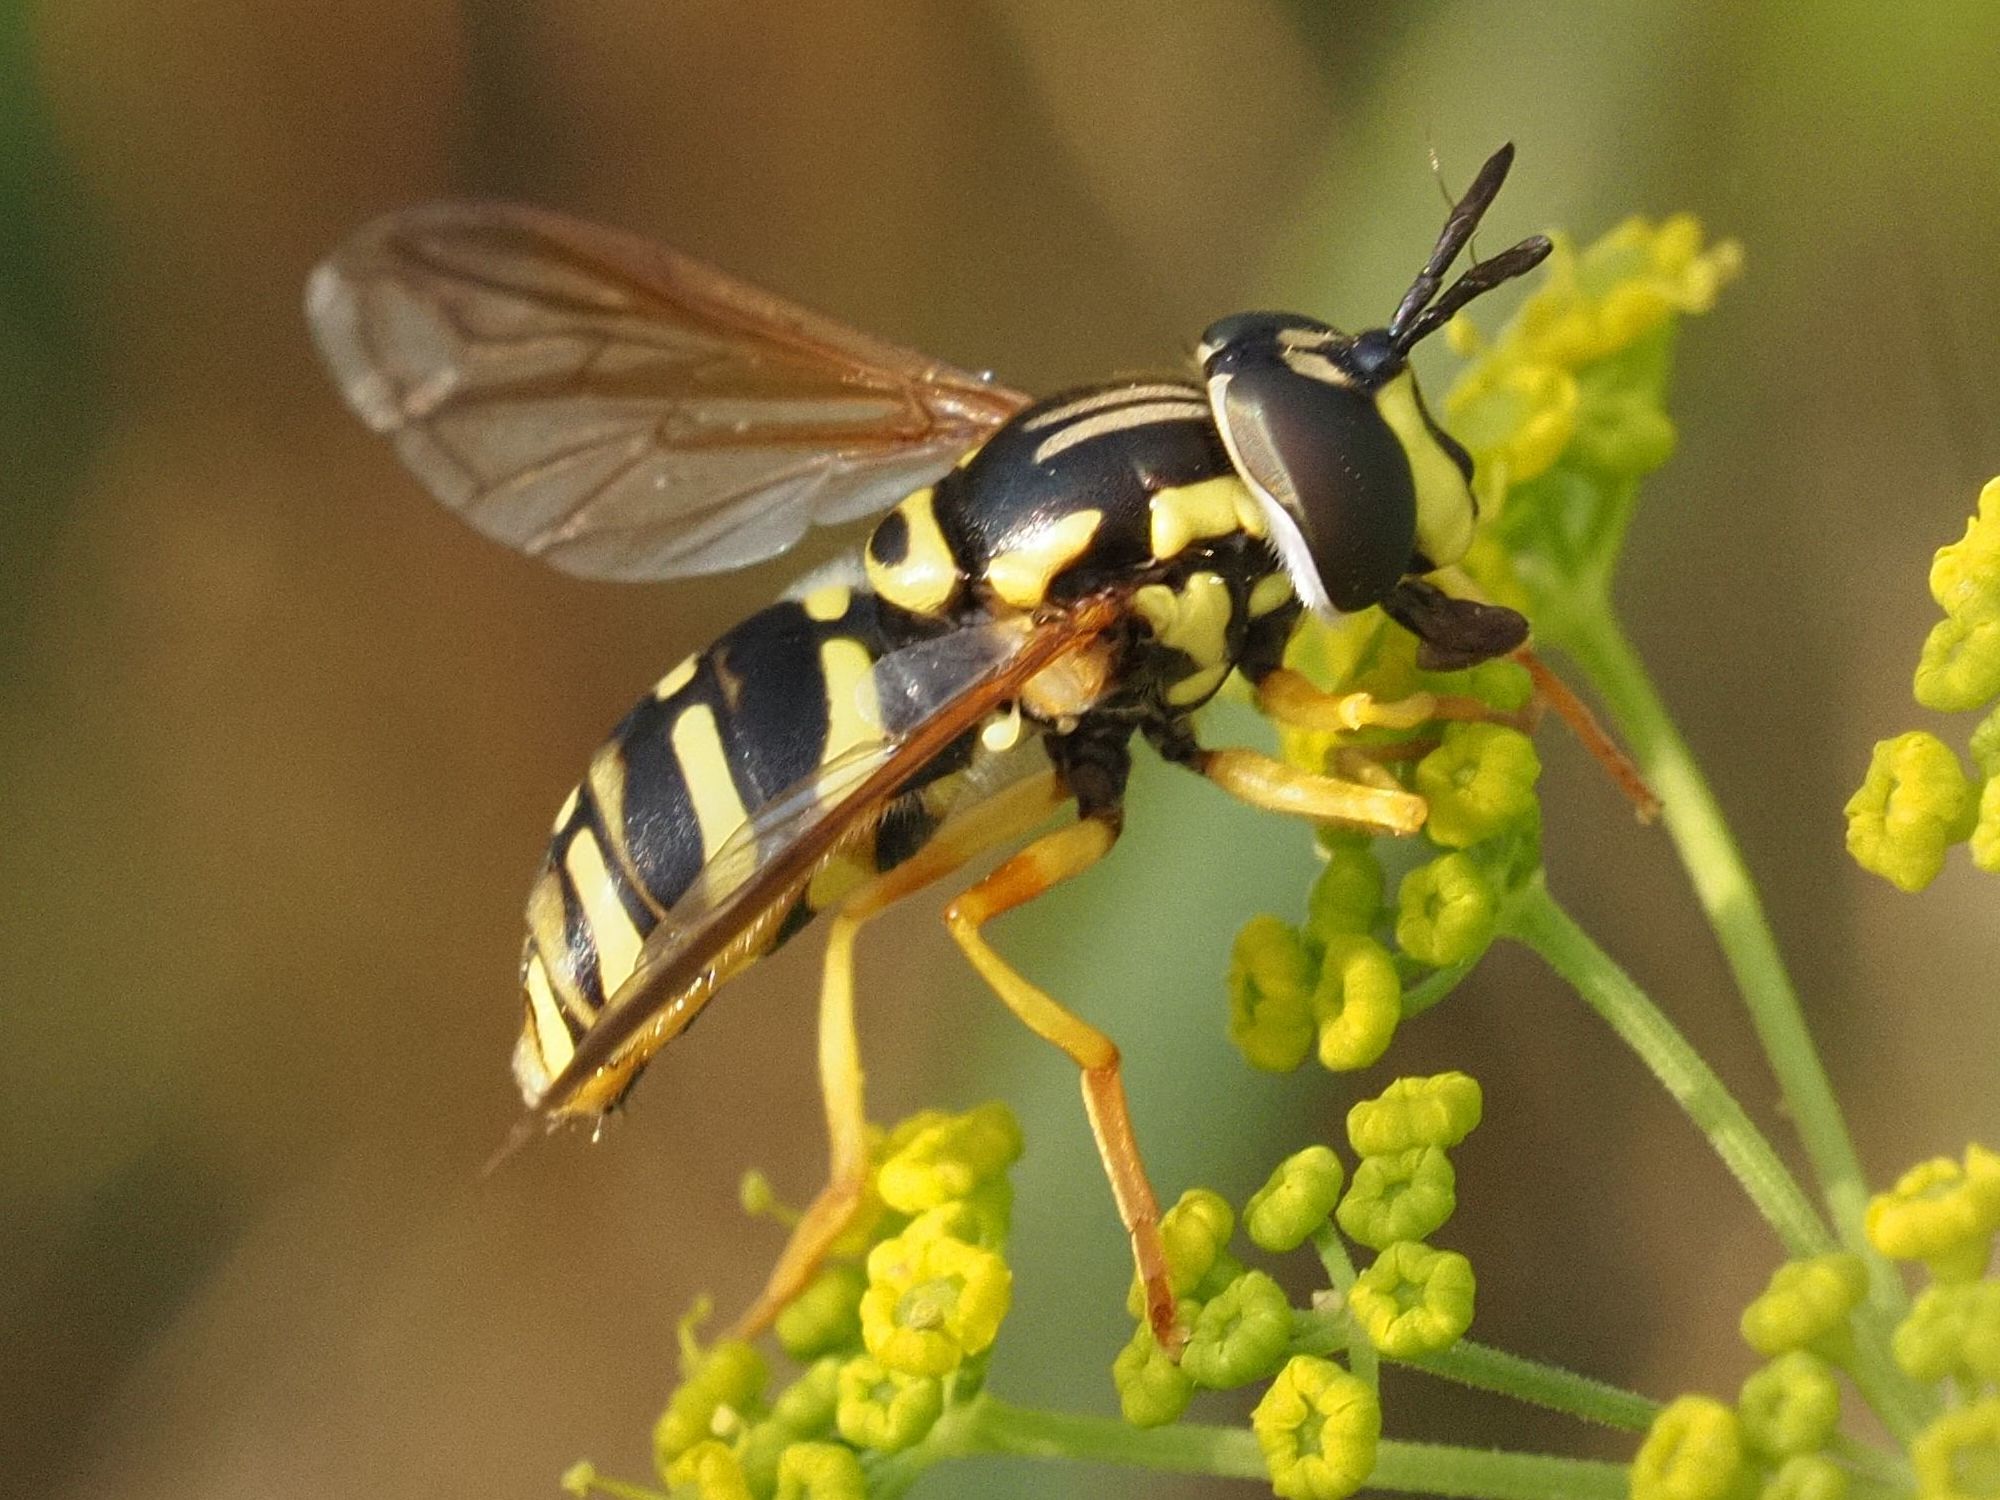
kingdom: Animalia
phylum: Arthropoda
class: Insecta
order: Diptera
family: Syrphidae
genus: Chrysotoxum
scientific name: Chrysotoxum elegans
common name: Zipperback
